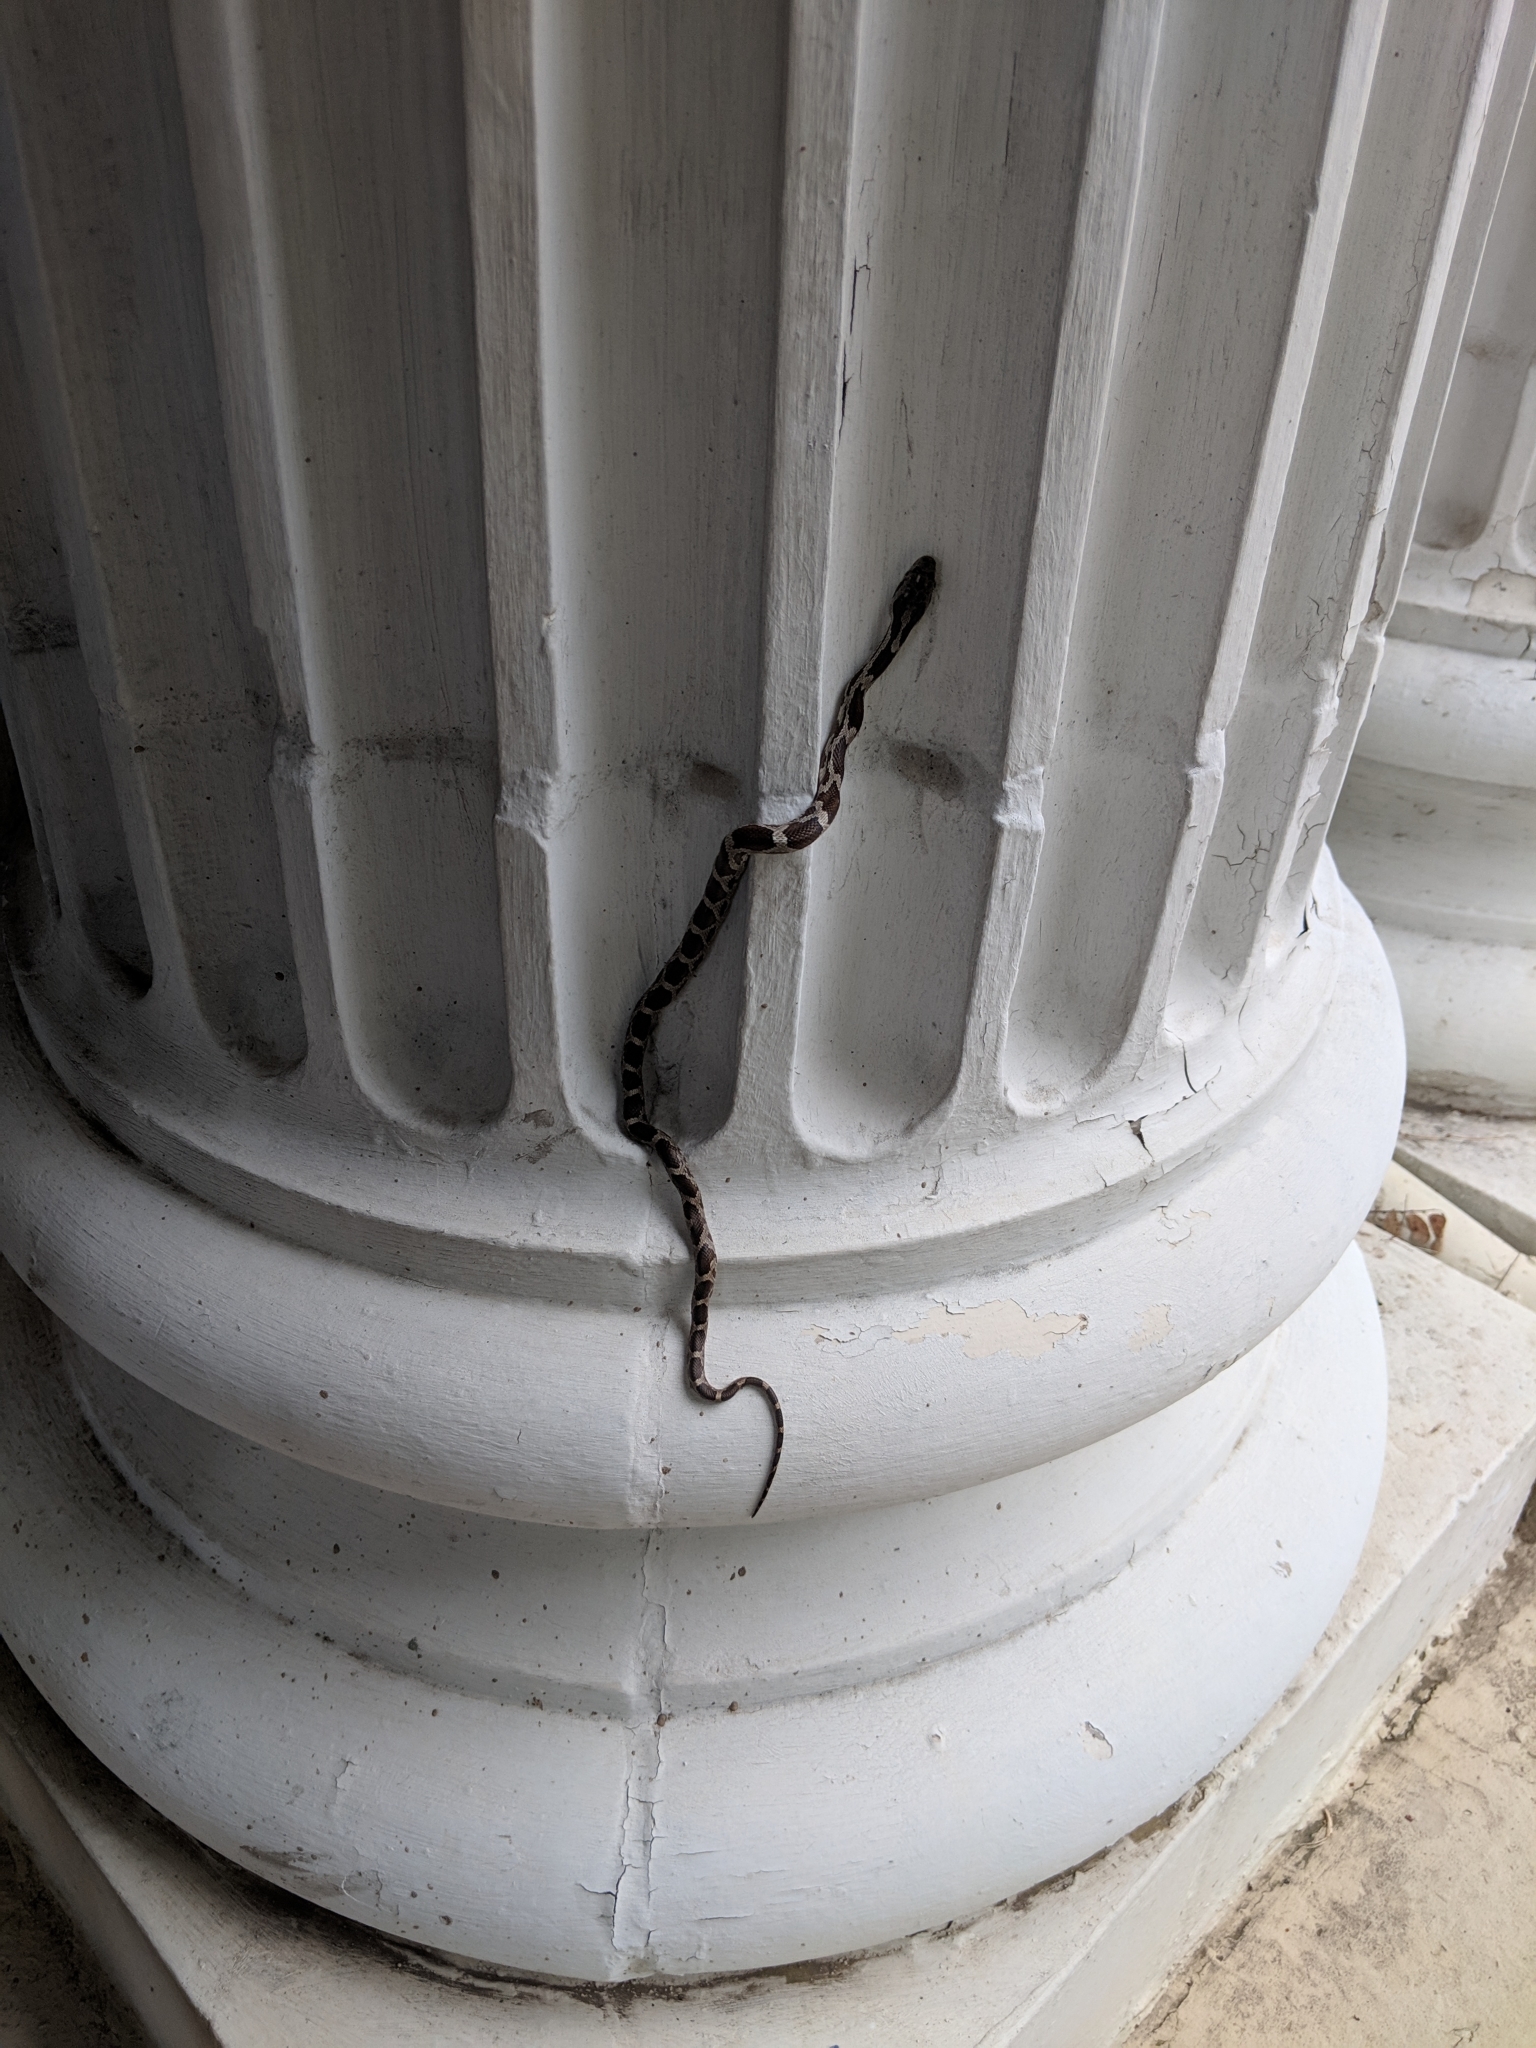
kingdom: Animalia
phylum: Chordata
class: Squamata
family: Colubridae
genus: Pantherophis
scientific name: Pantherophis spiloides
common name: Gray rat snake
